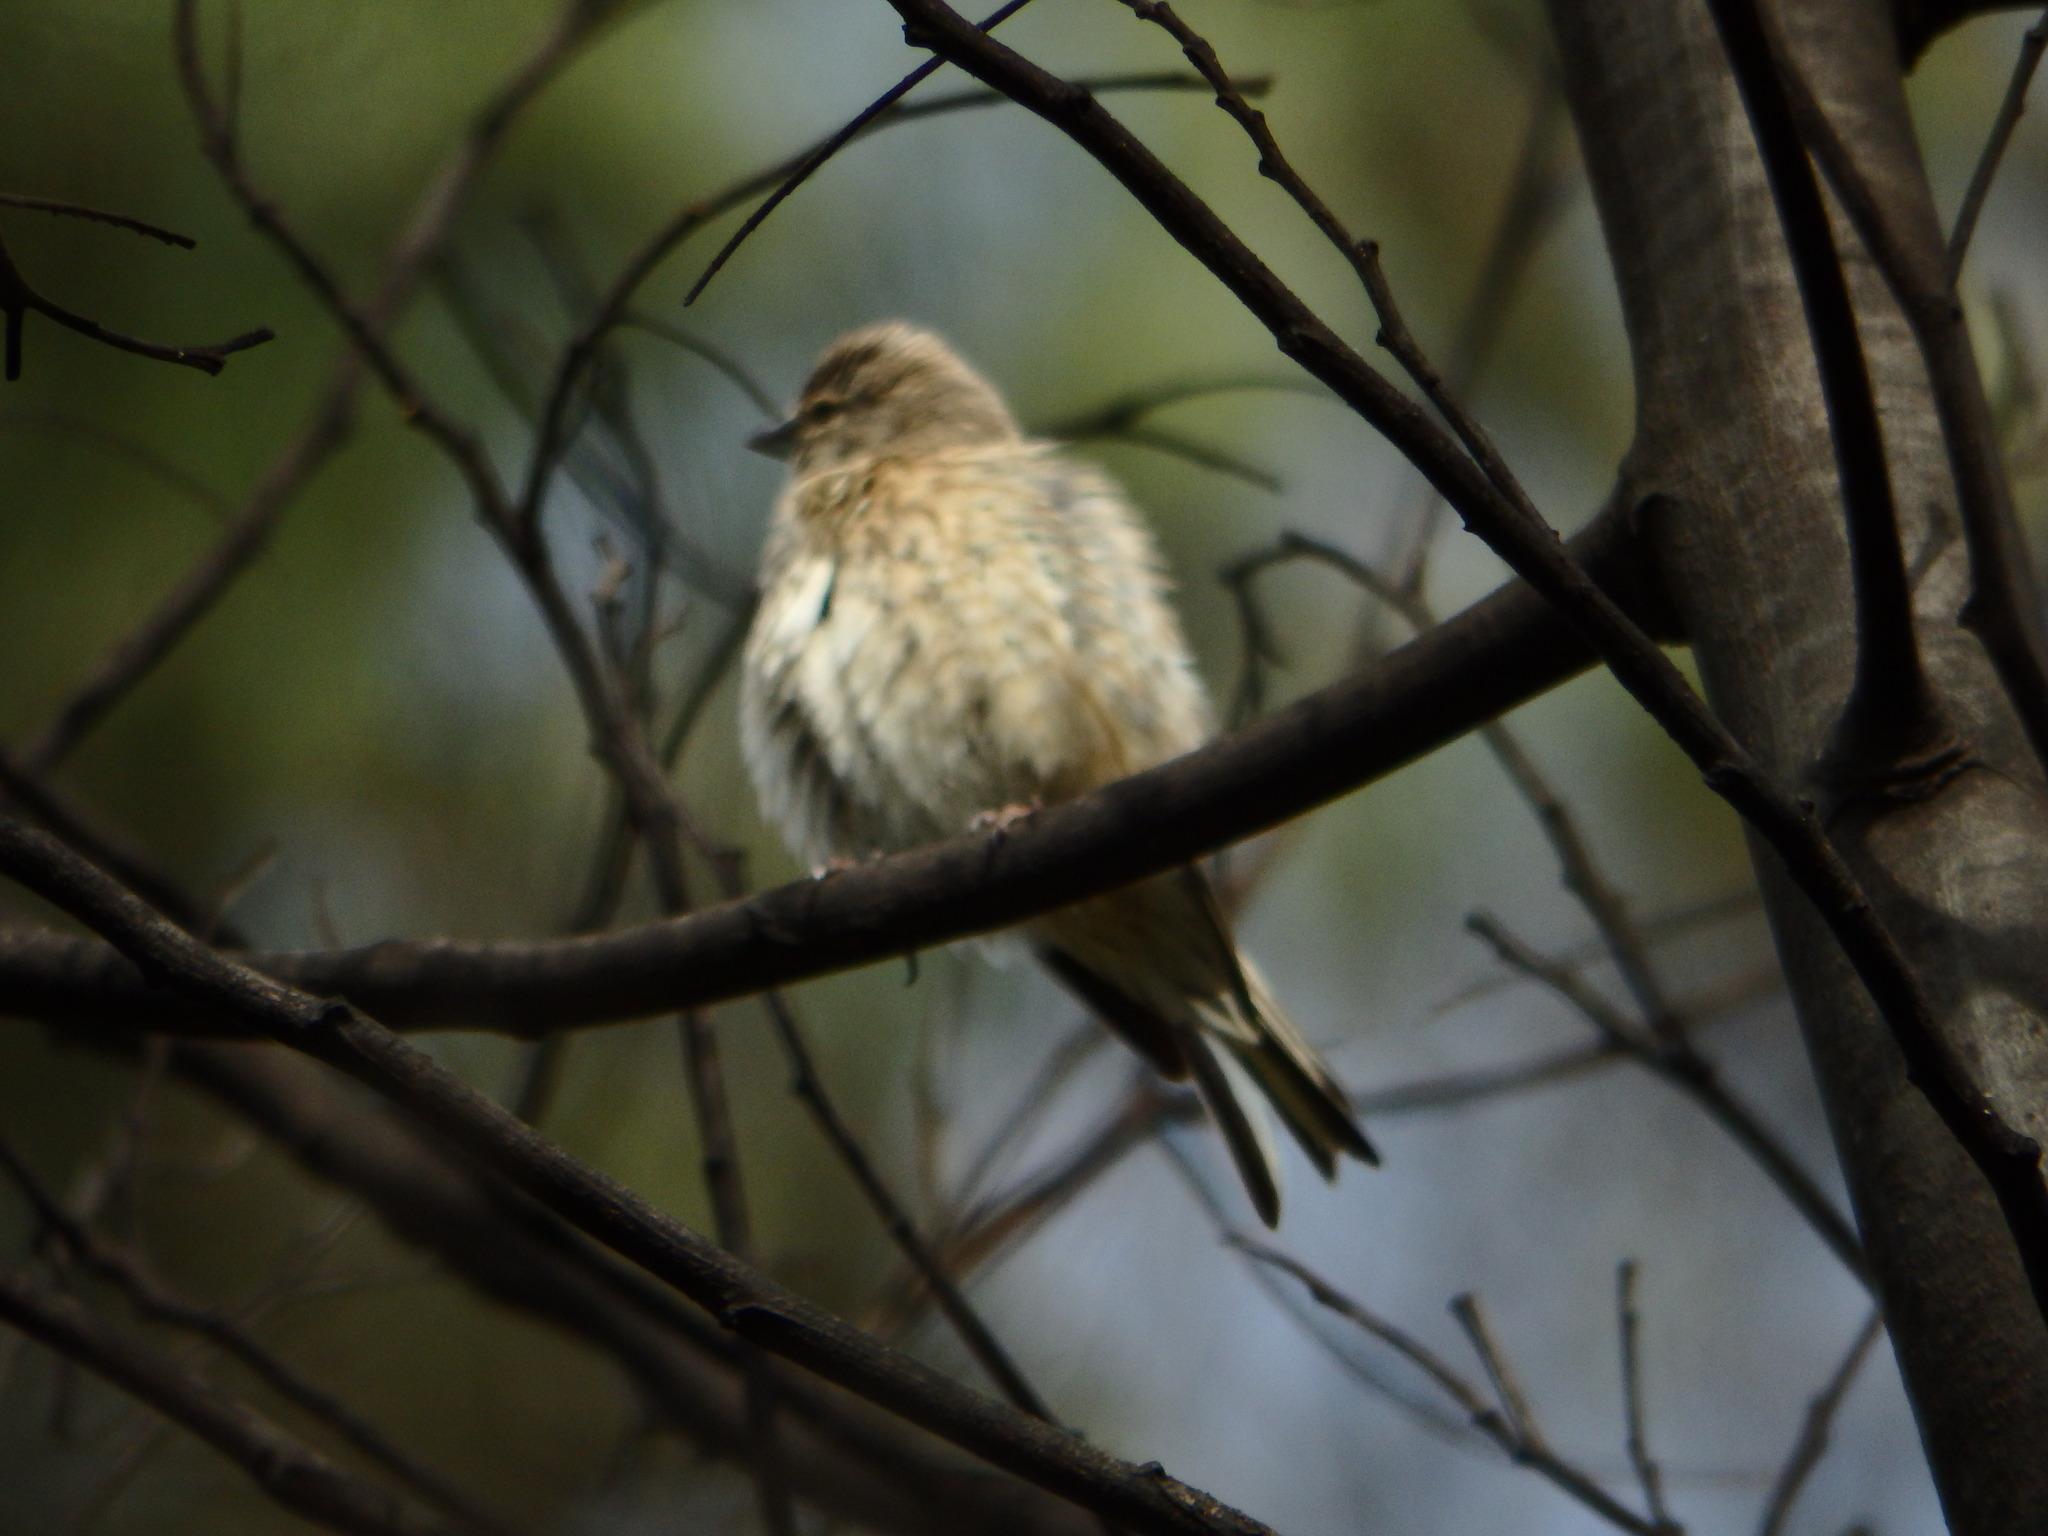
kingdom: Animalia
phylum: Chordata
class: Aves
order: Passeriformes
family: Fringillidae
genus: Linaria
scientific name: Linaria cannabina
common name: Common linnet
